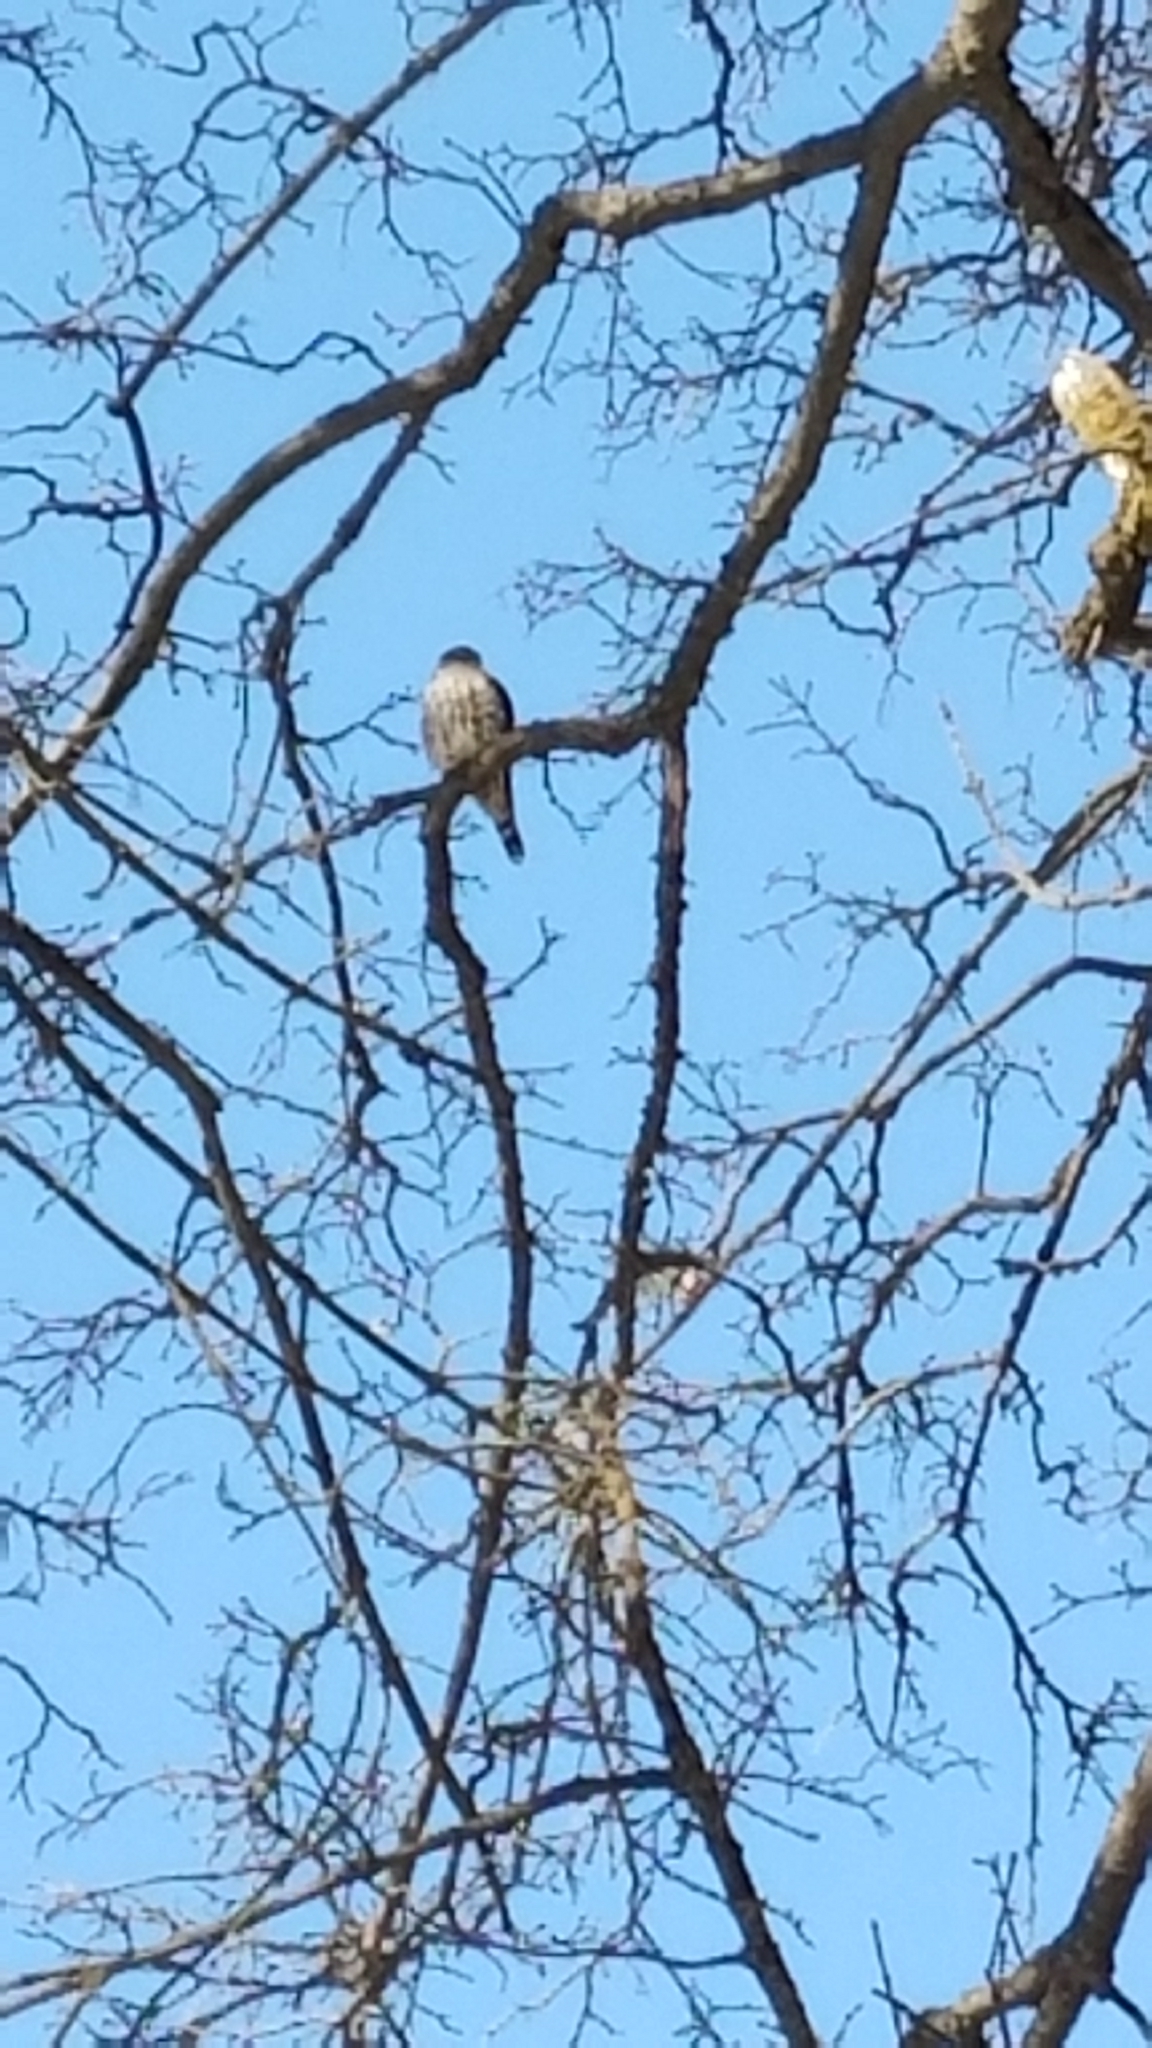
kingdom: Animalia
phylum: Chordata
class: Aves
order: Falconiformes
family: Falconidae
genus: Falco
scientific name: Falco columbarius
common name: Merlin
